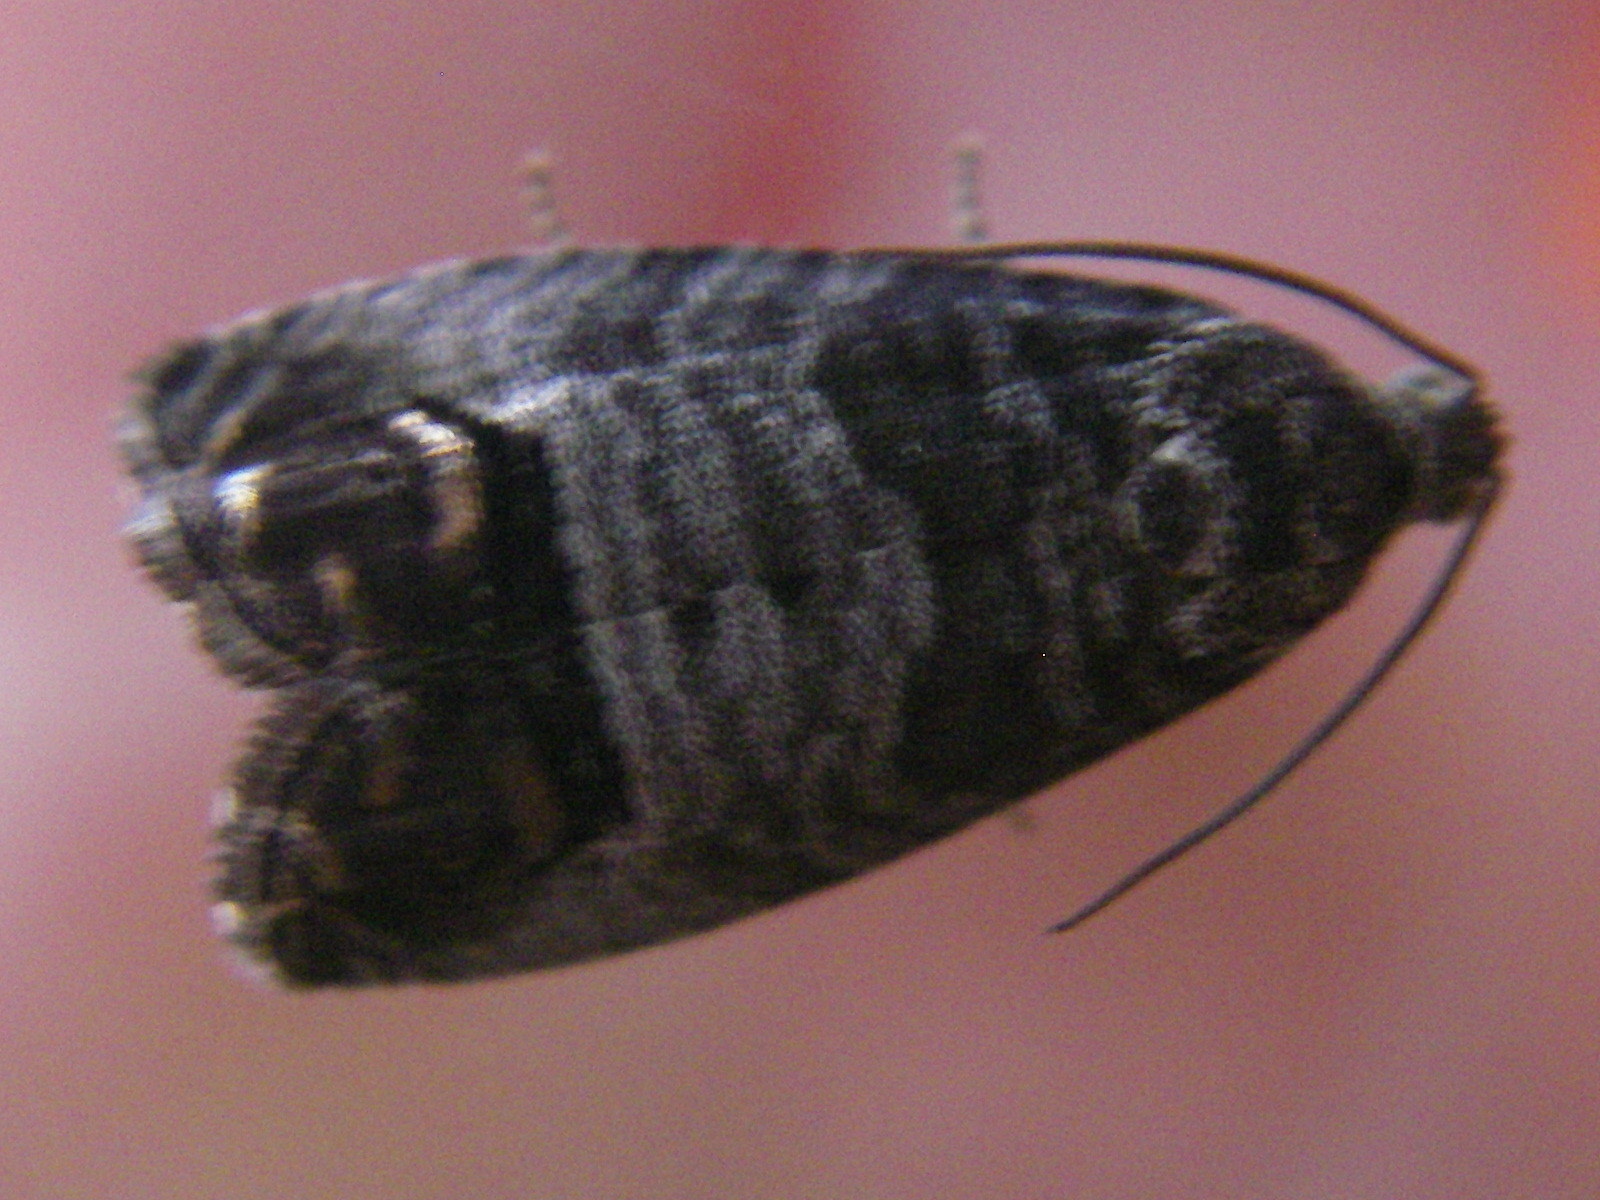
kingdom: Animalia
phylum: Arthropoda
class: Insecta
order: Lepidoptera
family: Tortricidae
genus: Cydia
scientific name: Cydia pomonella
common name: Codling moth
